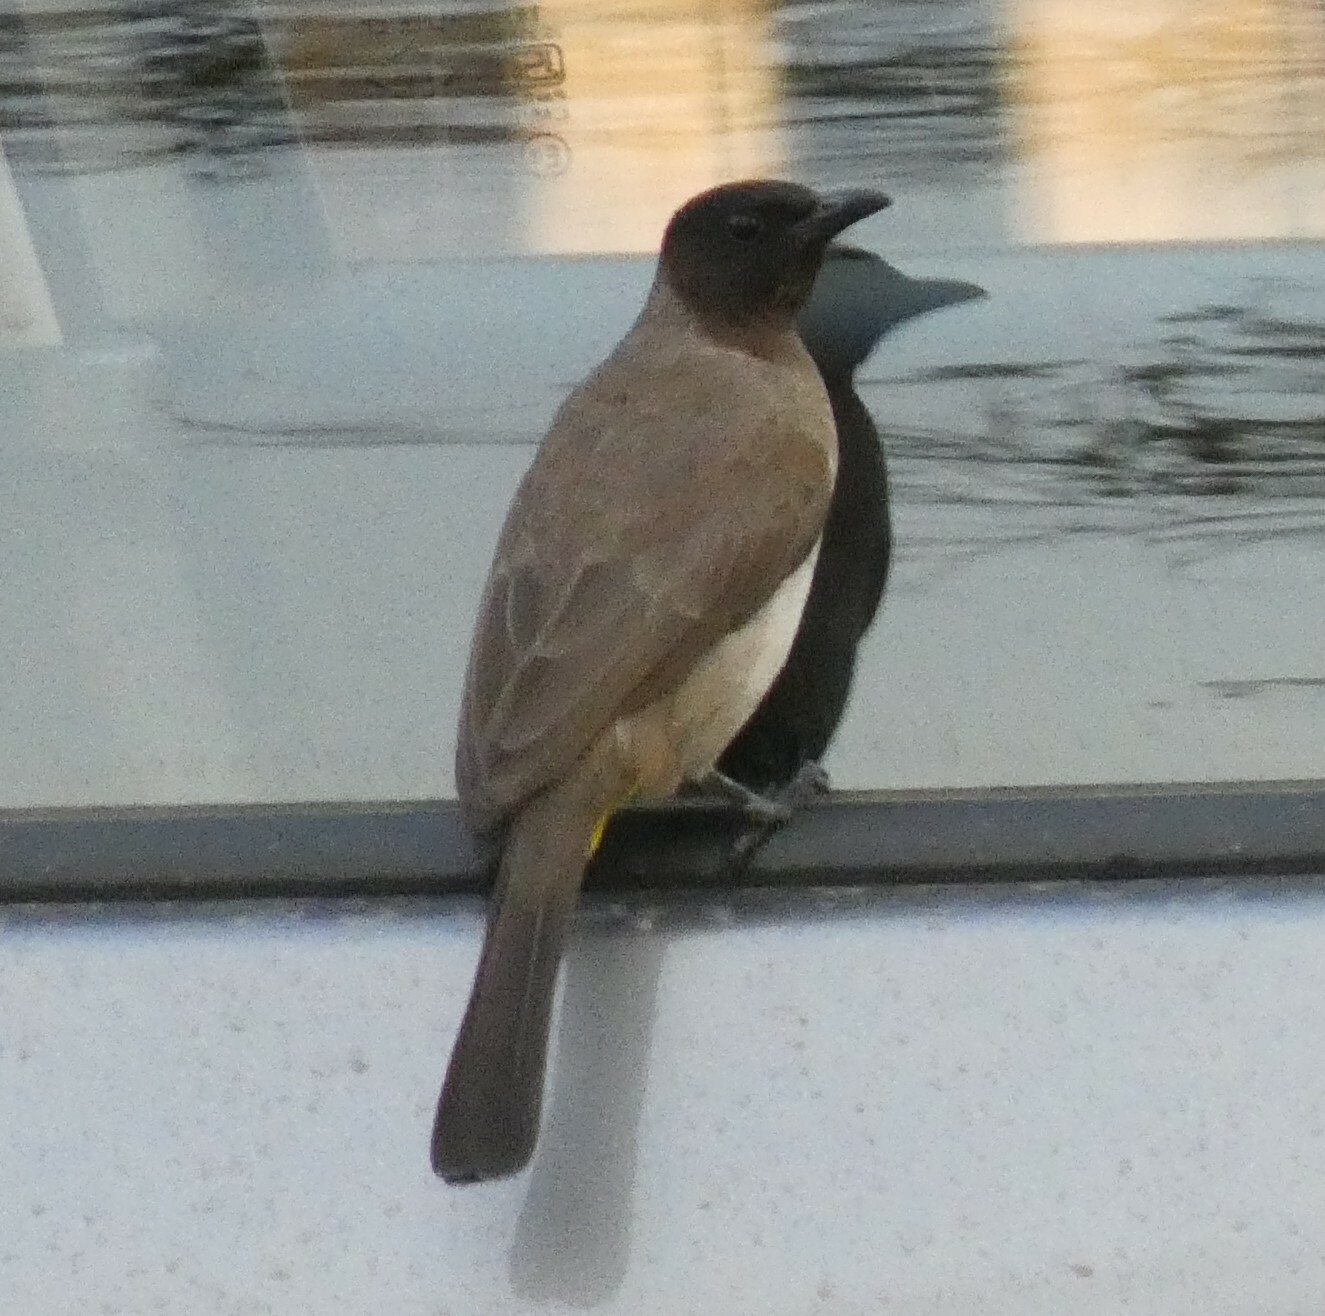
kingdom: Animalia
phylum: Chordata
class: Aves
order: Passeriformes
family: Pycnonotidae
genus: Pycnonotus
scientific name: Pycnonotus barbatus
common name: Common bulbul
